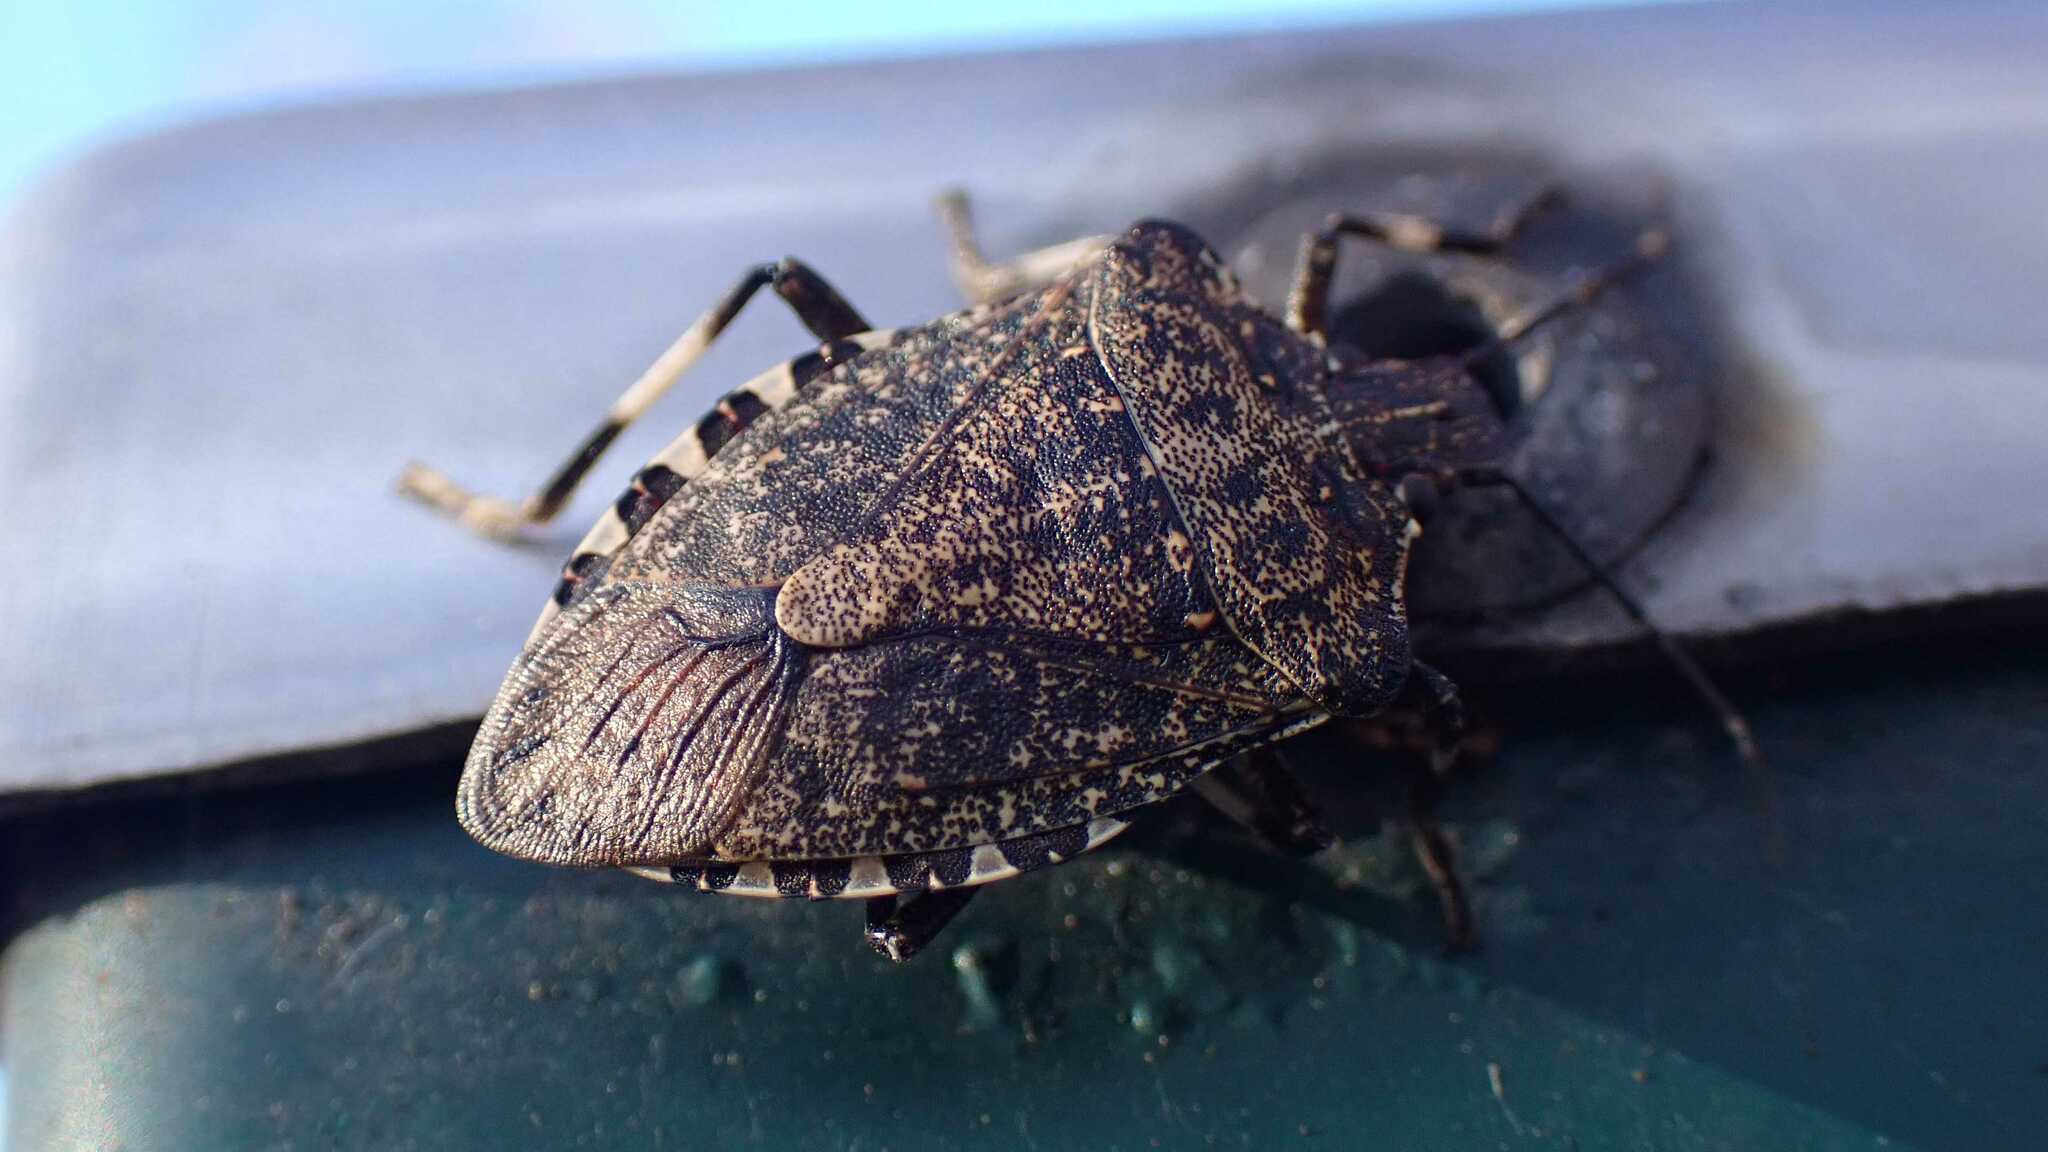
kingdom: Animalia
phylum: Arthropoda
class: Insecta
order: Hemiptera
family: Pentatomidae
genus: Halyomorpha
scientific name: Halyomorpha halys
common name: Brown marmorated stink bug
